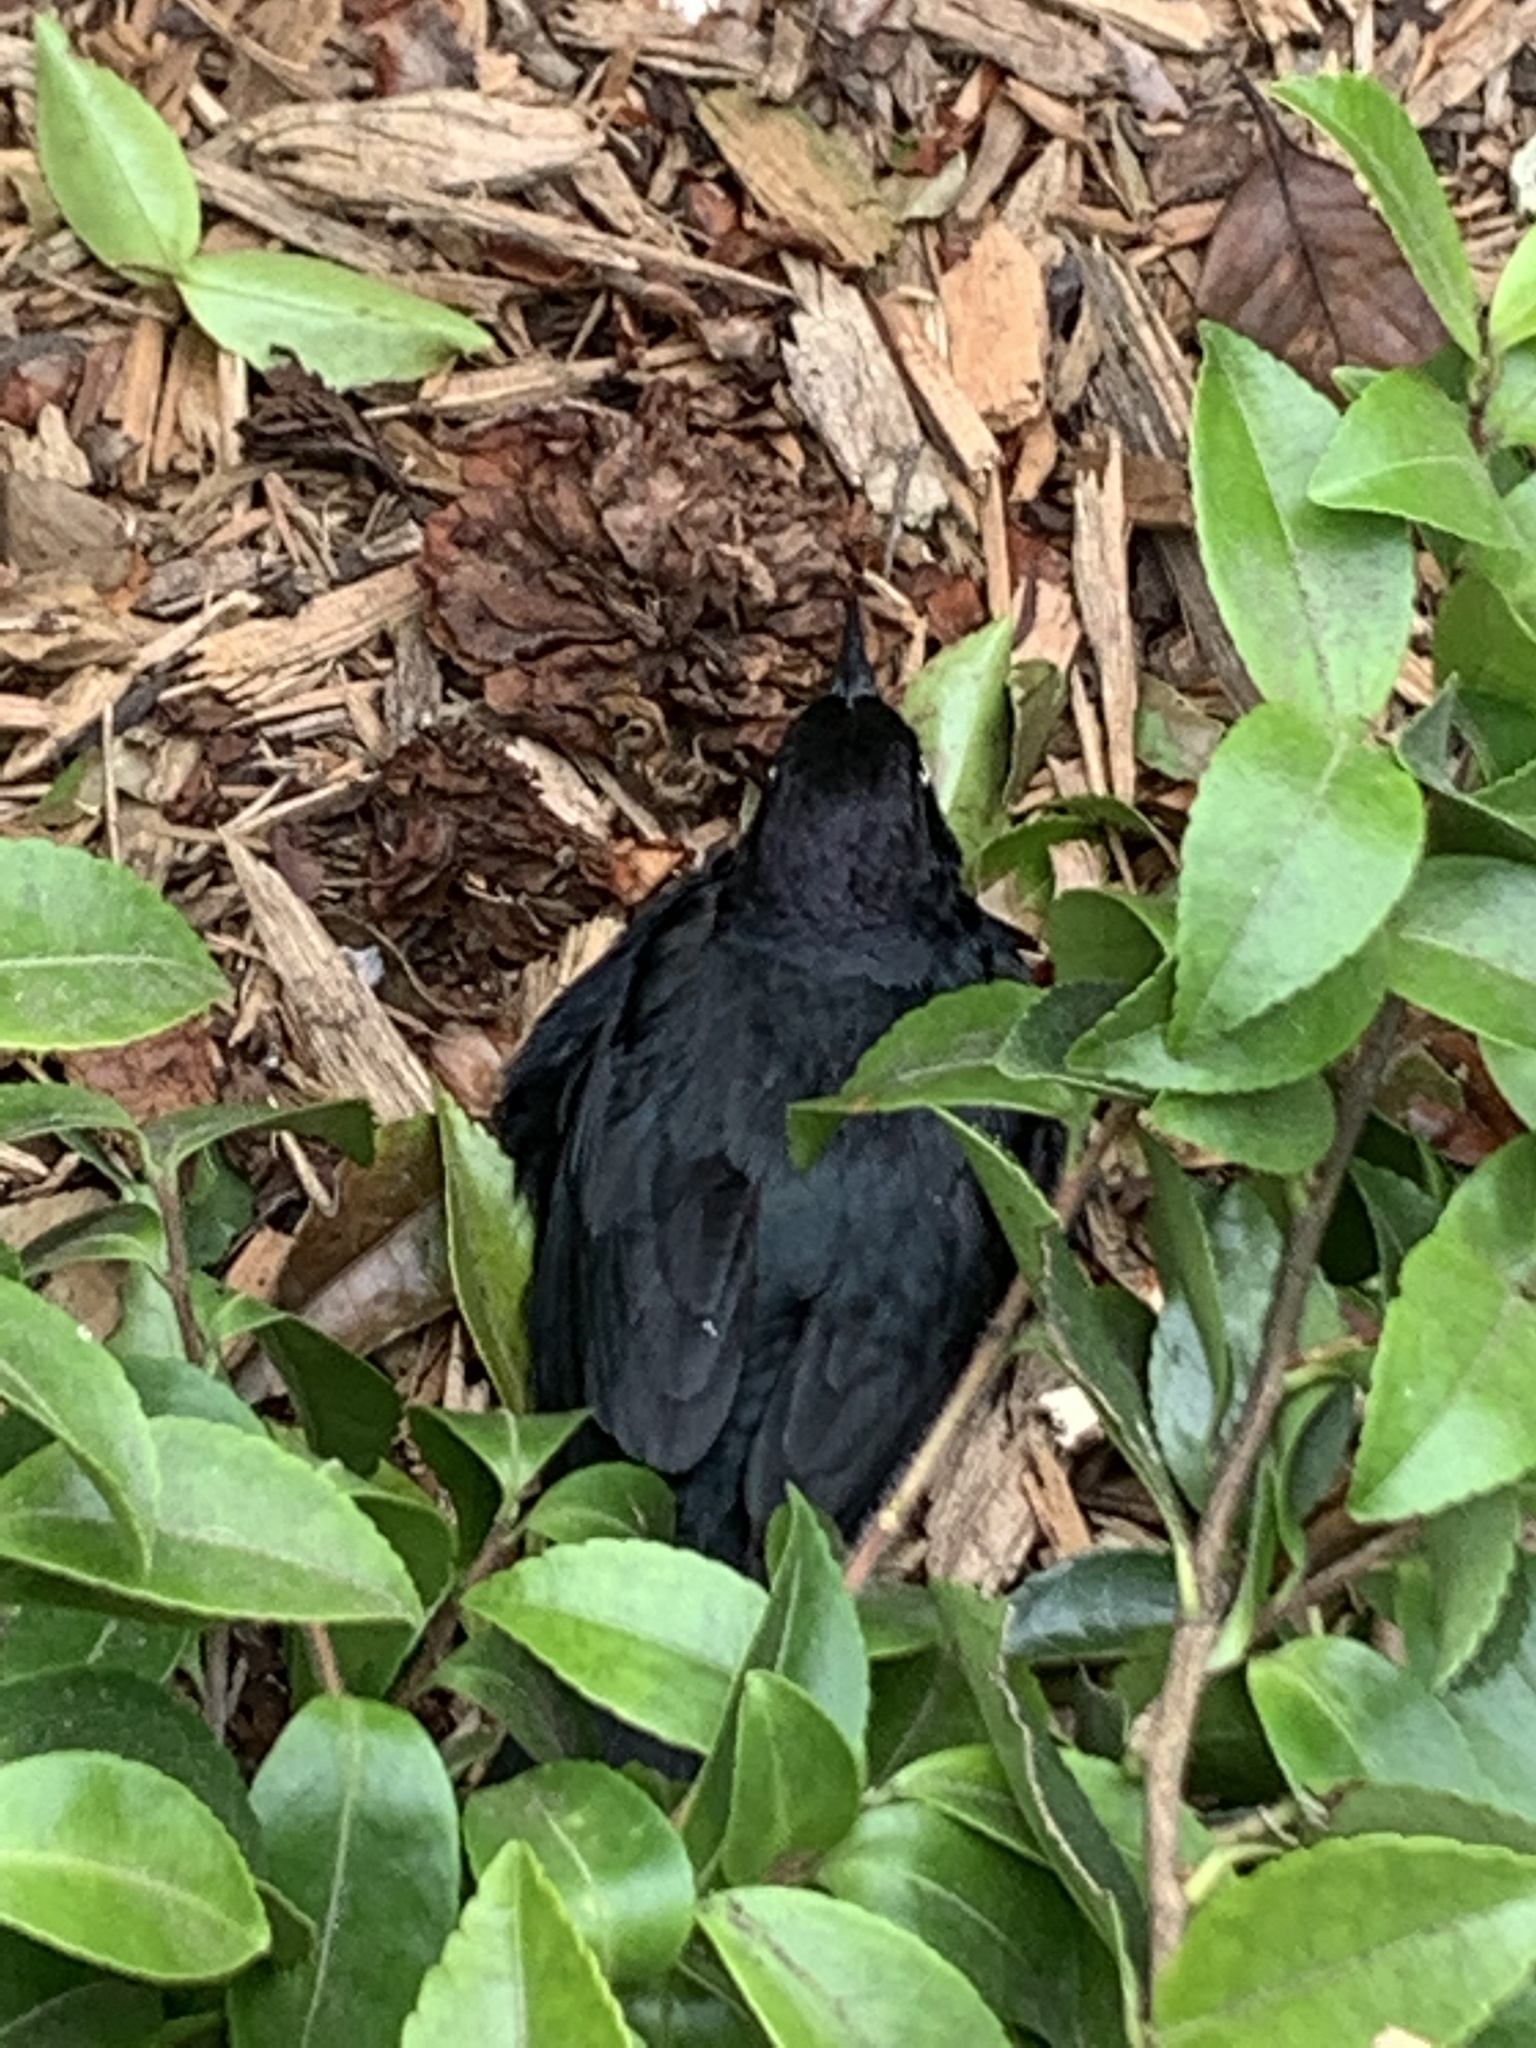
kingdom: Animalia
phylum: Chordata
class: Aves
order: Passeriformes
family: Icteridae
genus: Euphagus
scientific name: Euphagus cyanocephalus
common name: Brewer's blackbird
